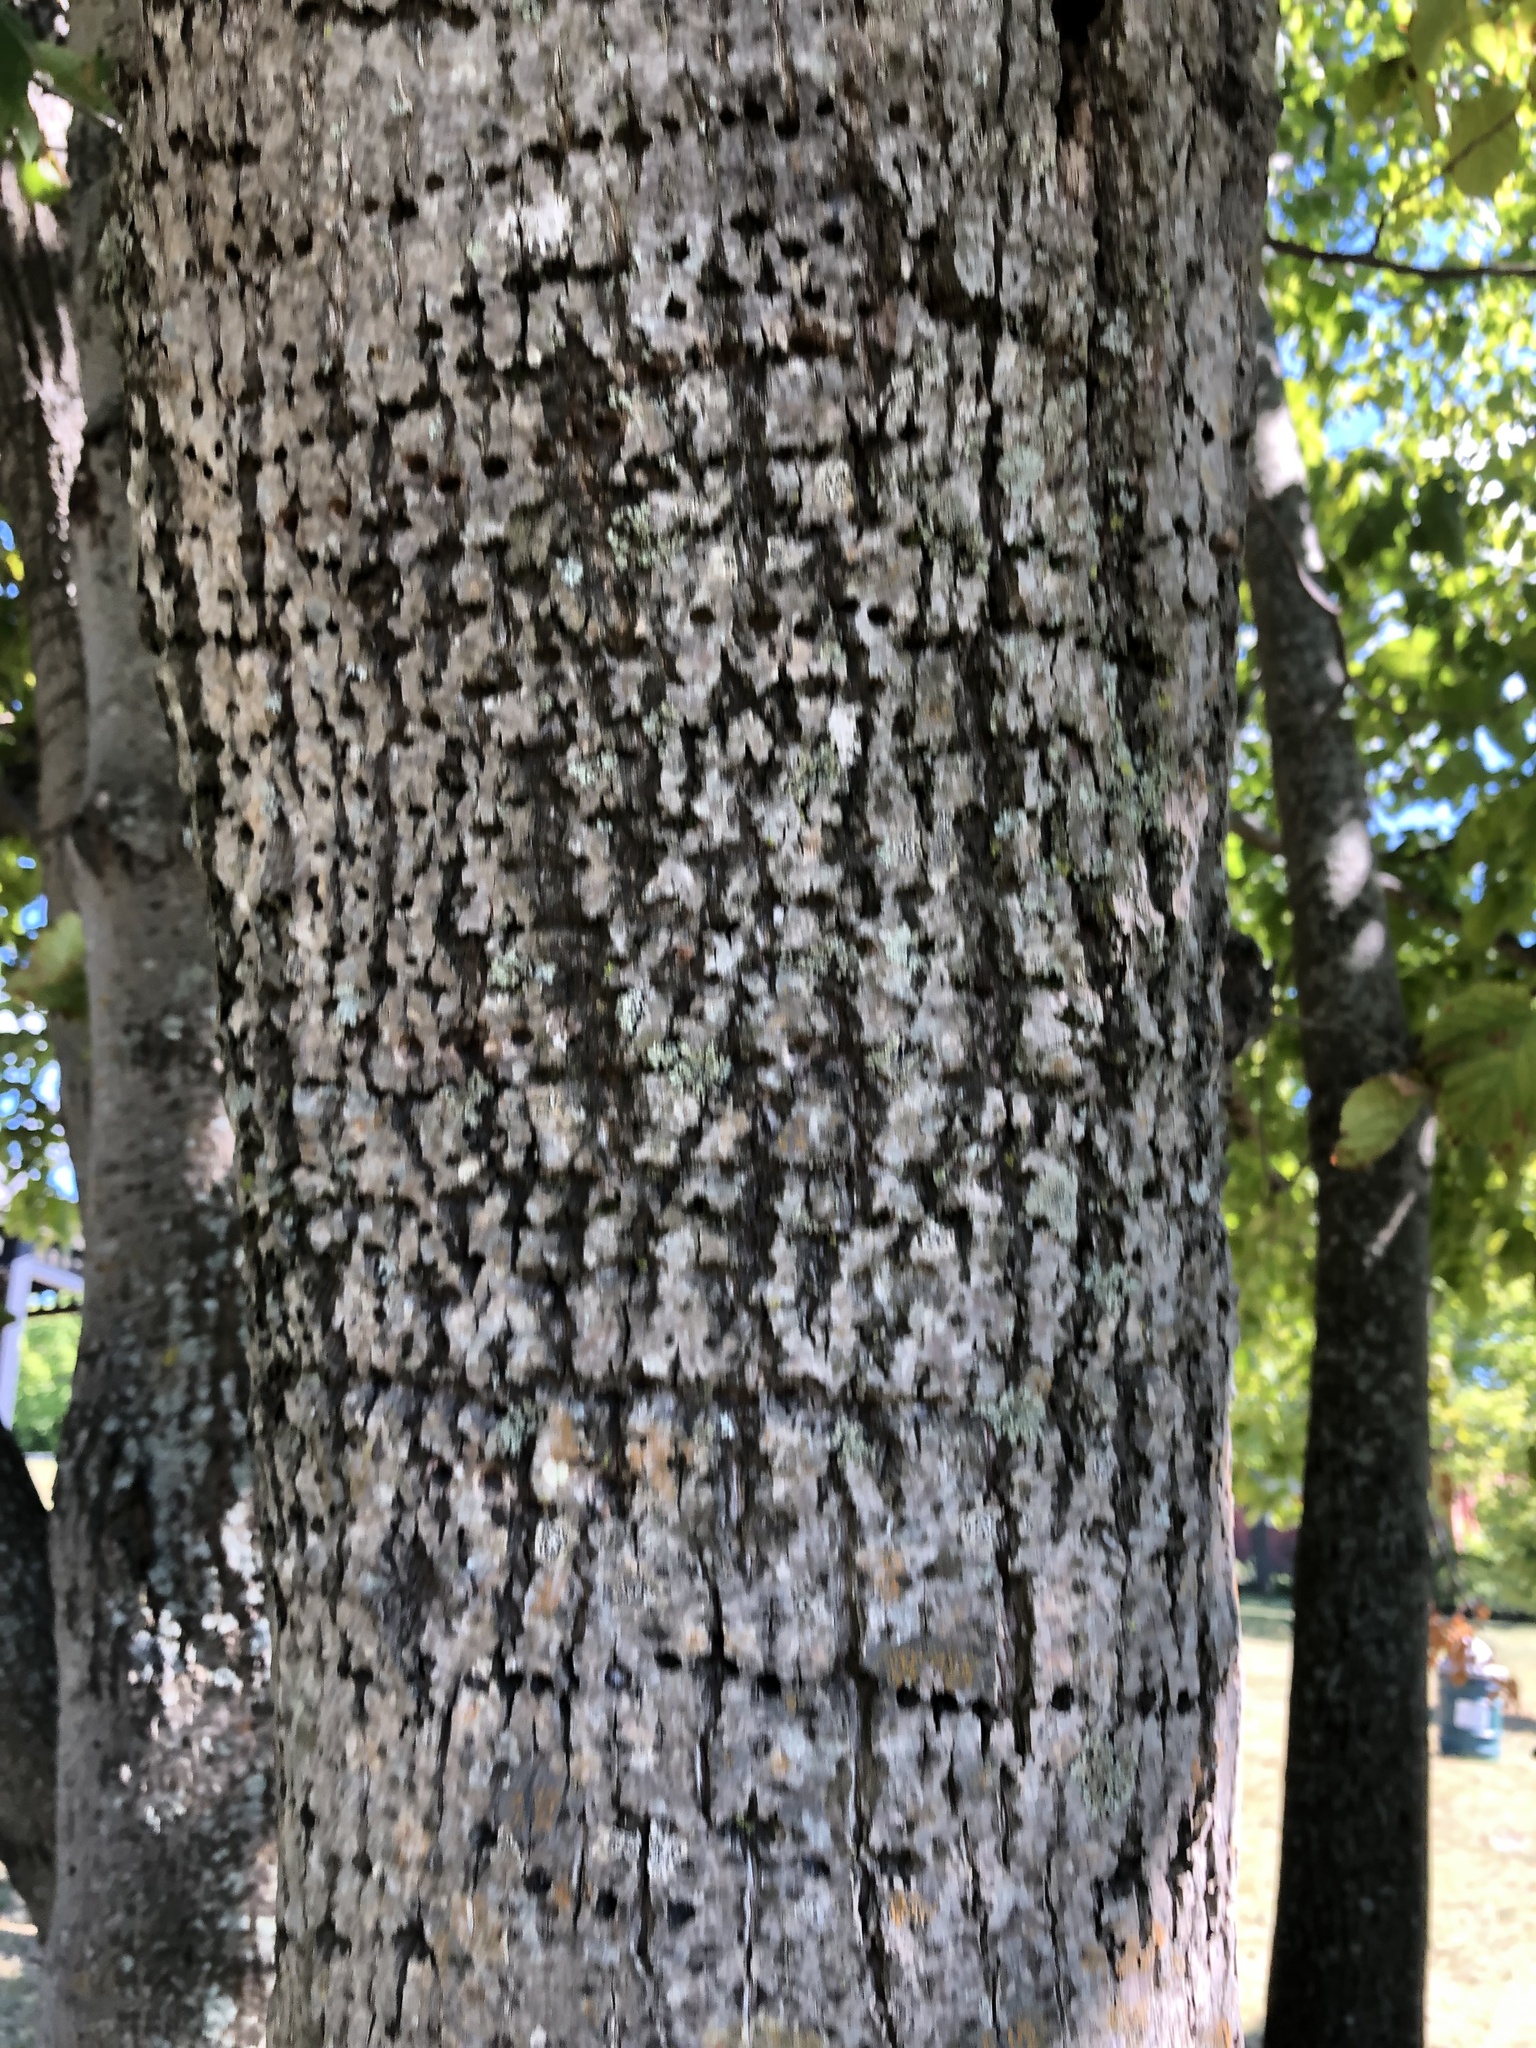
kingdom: Animalia
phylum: Chordata
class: Aves
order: Piciformes
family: Picidae
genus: Sphyrapicus
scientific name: Sphyrapicus varius
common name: Yellow-bellied sapsucker
